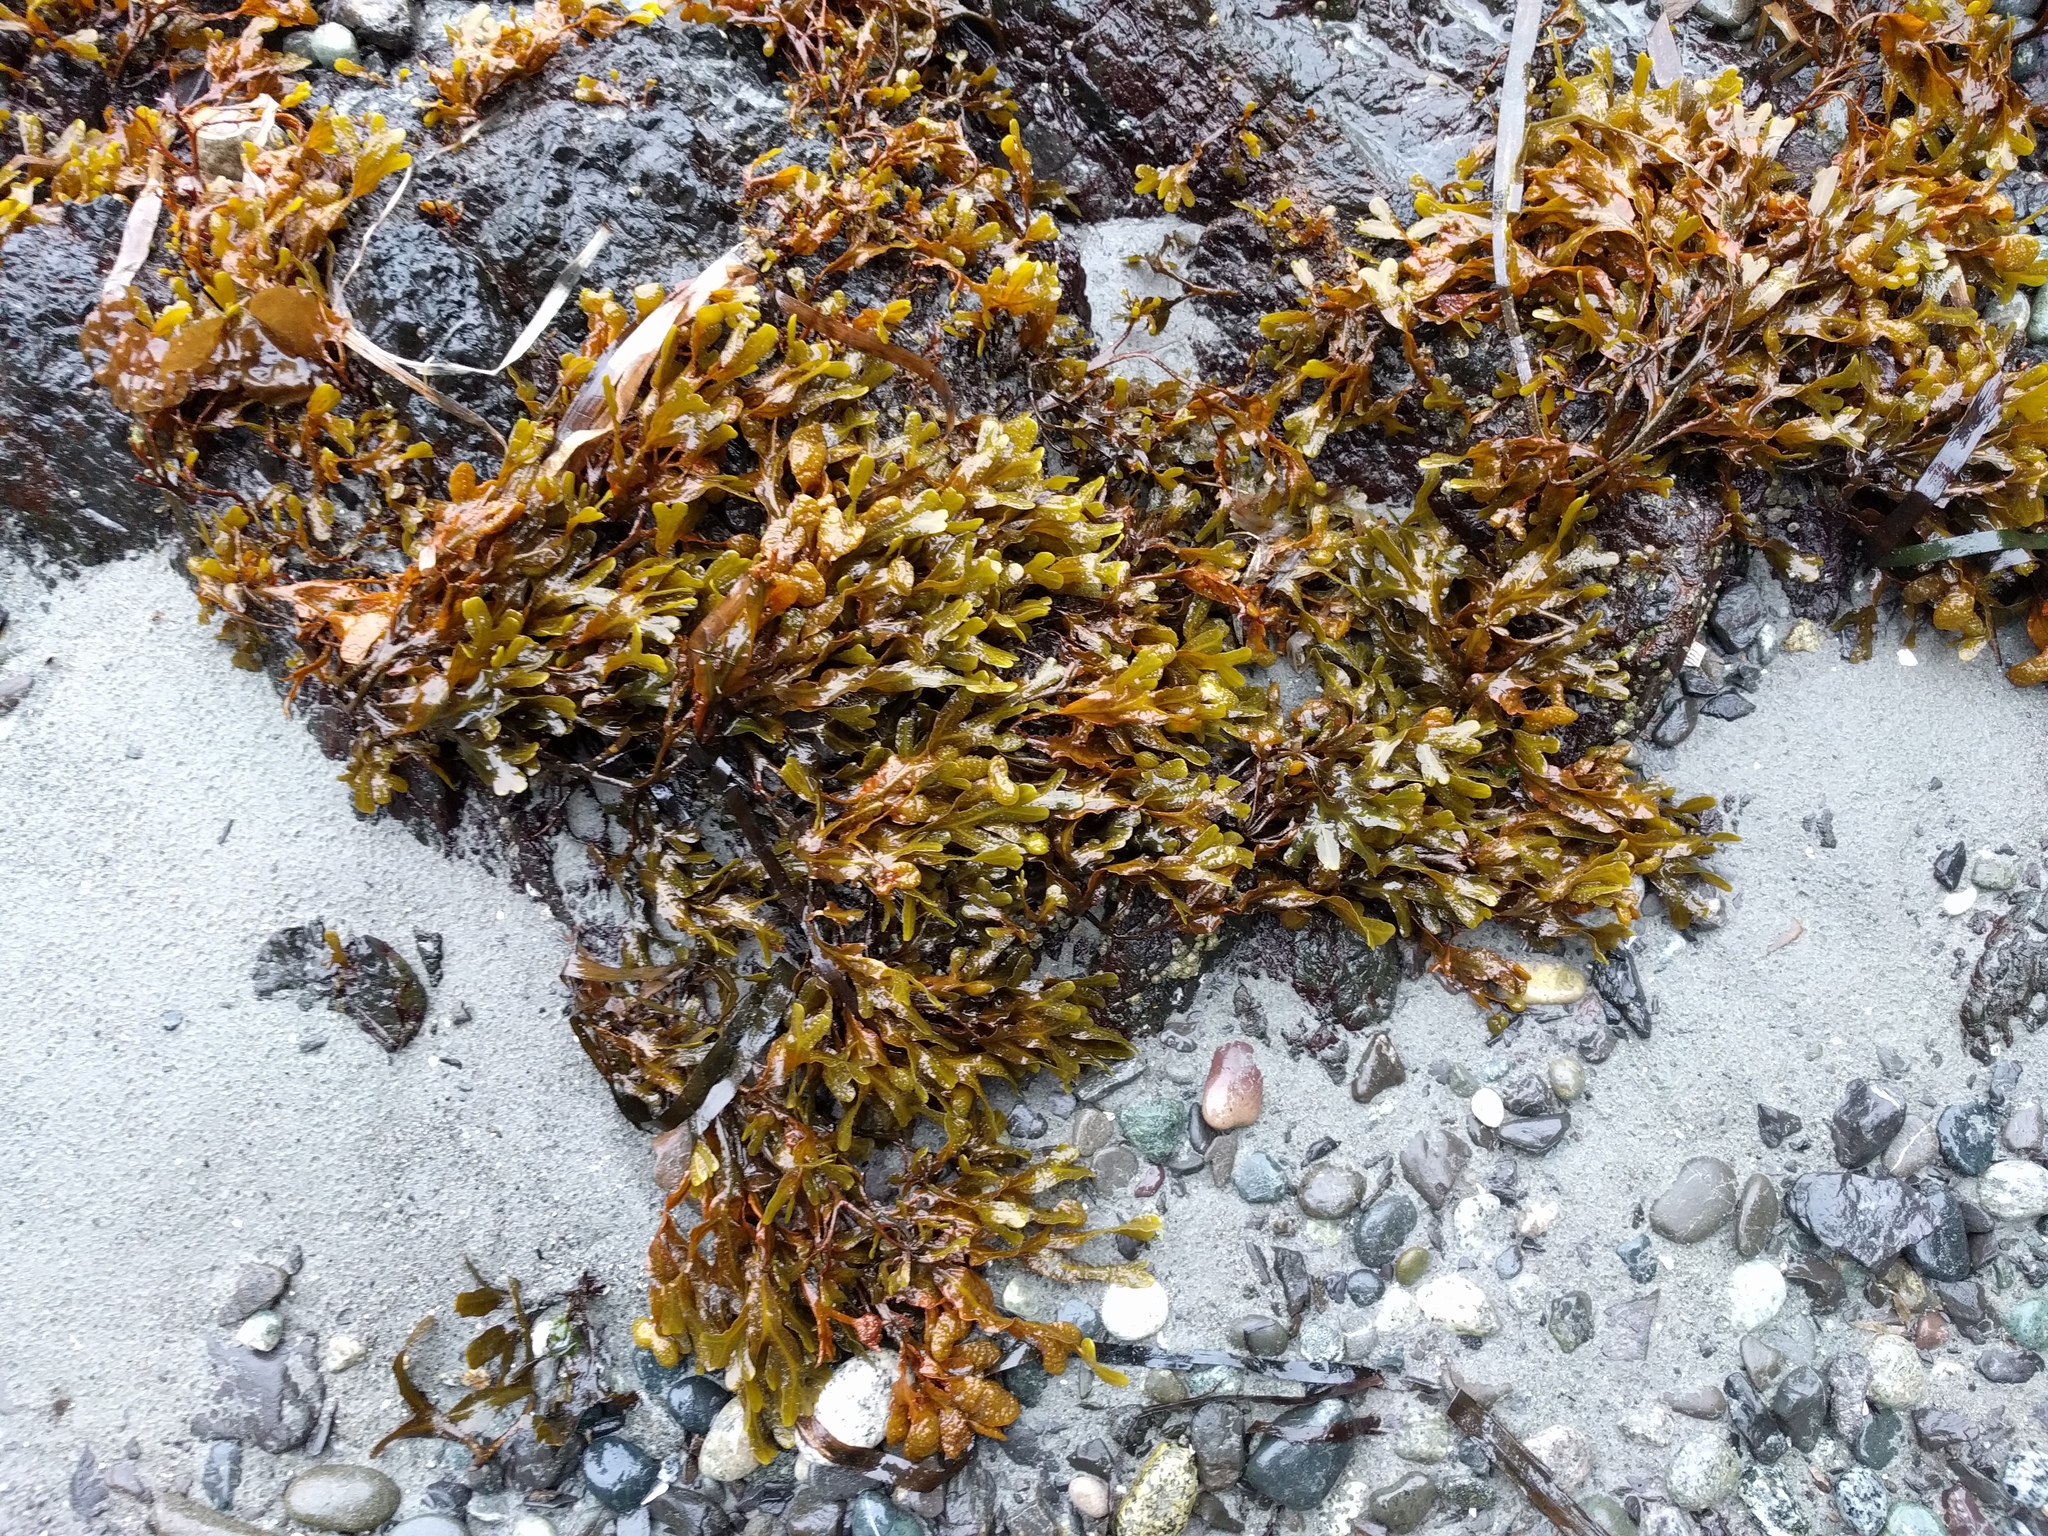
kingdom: Chromista
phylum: Ochrophyta
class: Phaeophyceae
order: Fucales
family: Fucaceae
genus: Fucus
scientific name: Fucus distichus
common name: Rockweed
